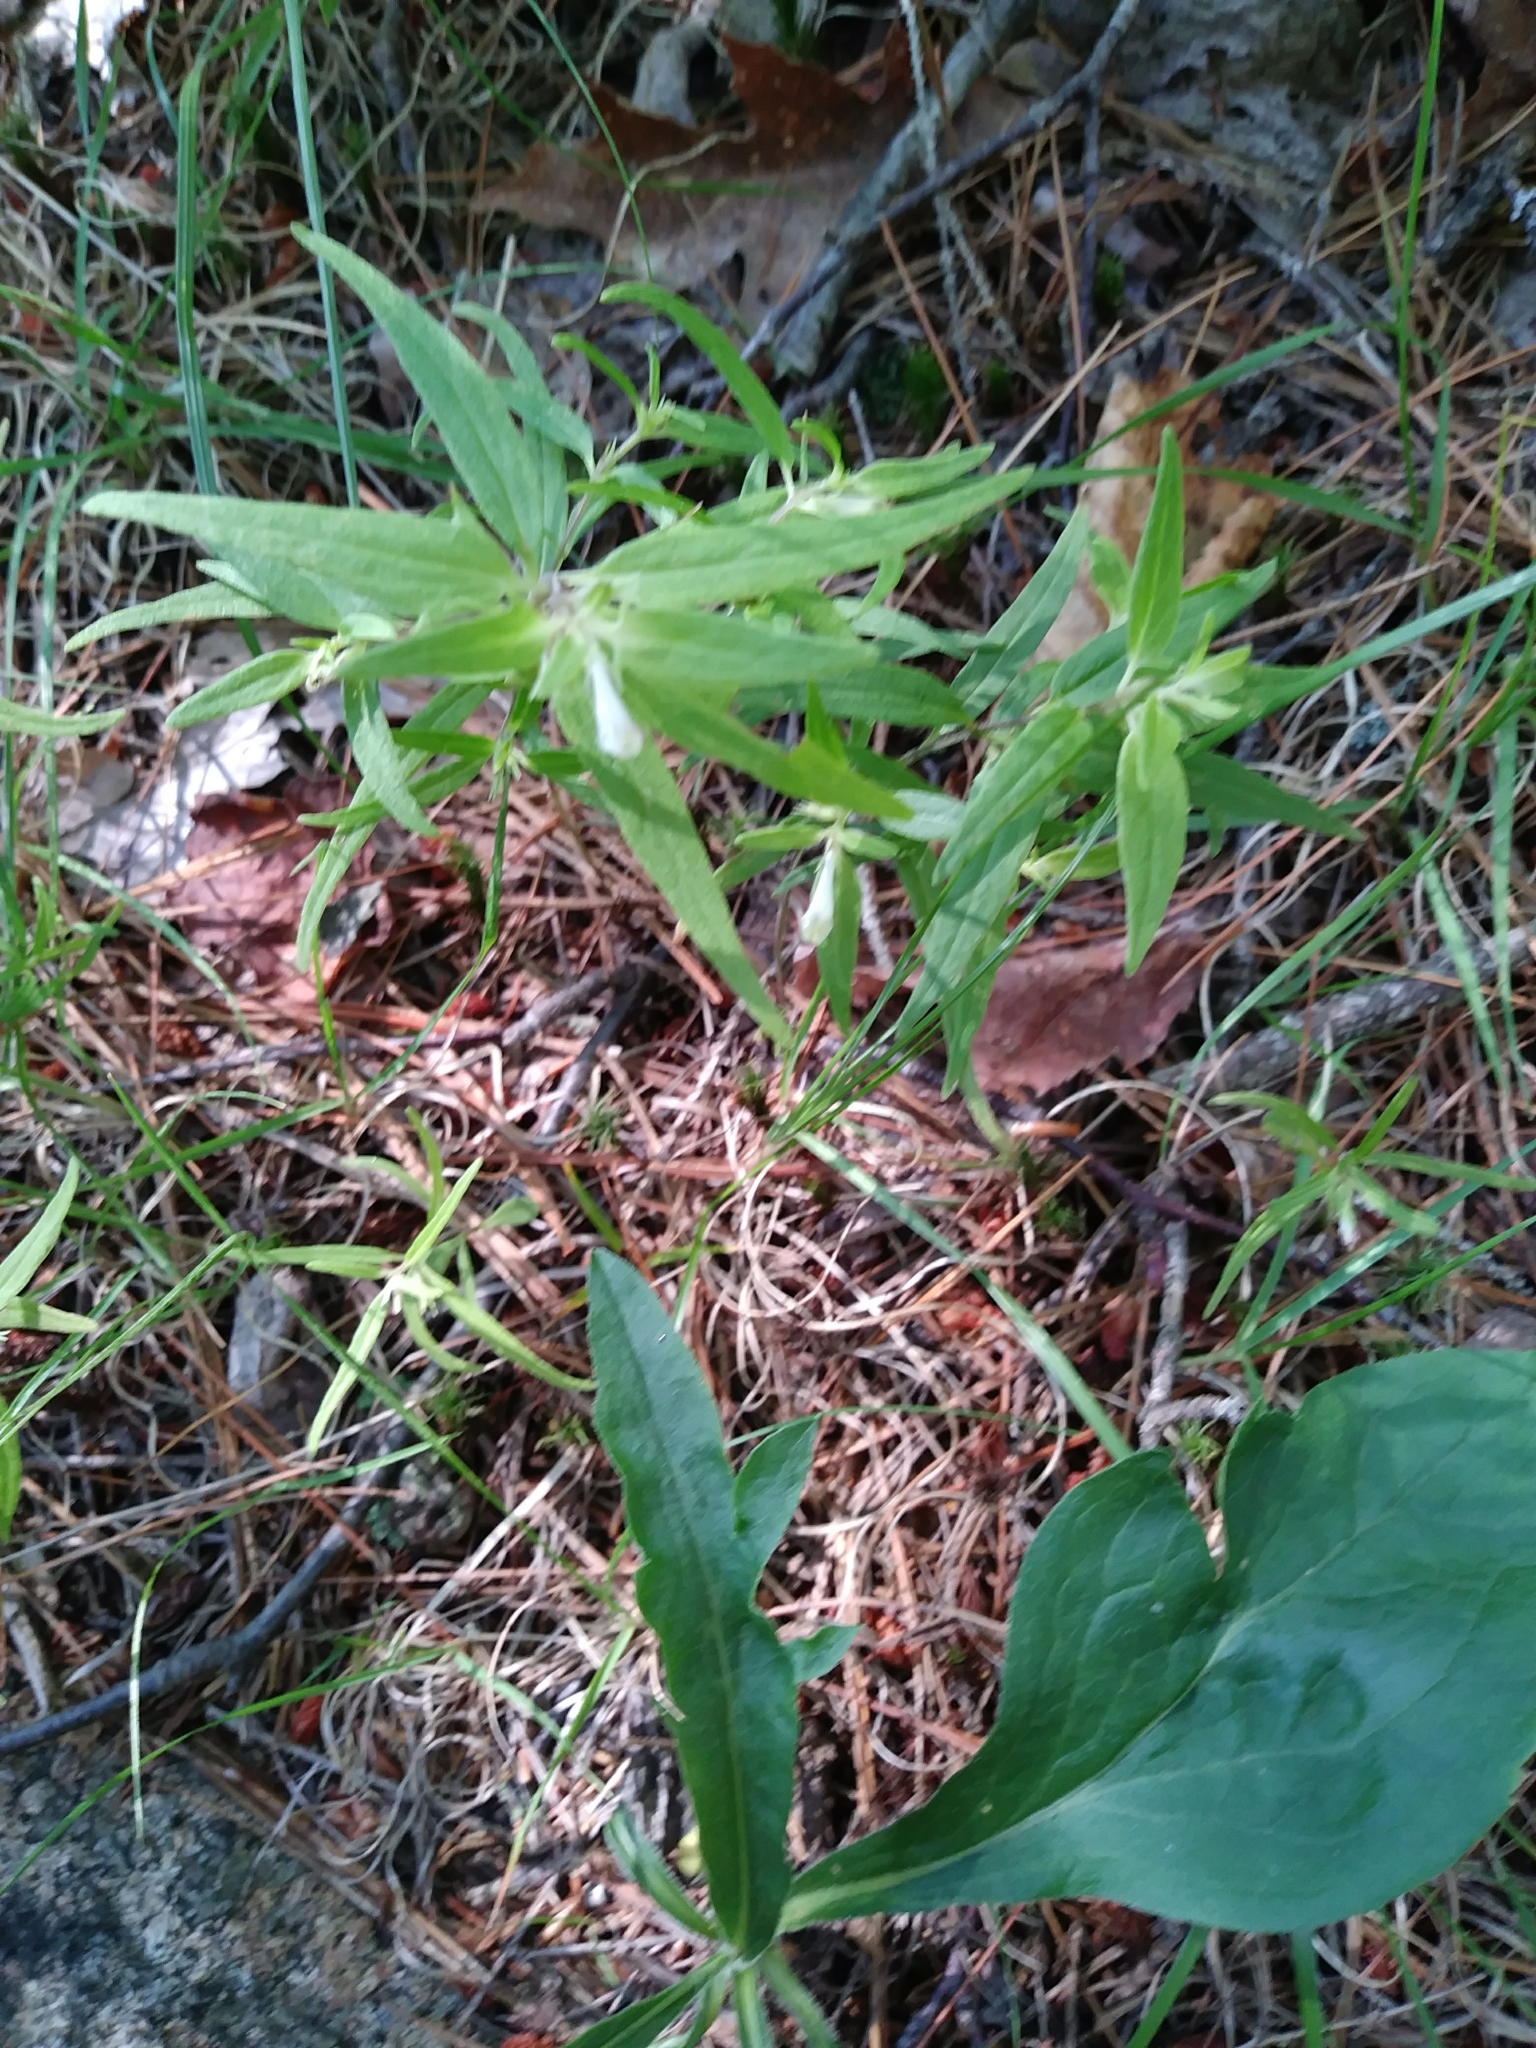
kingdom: Plantae
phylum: Tracheophyta
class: Magnoliopsida
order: Lamiales
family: Orobanchaceae
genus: Melampyrum
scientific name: Melampyrum lineare
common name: American cow-wheat
